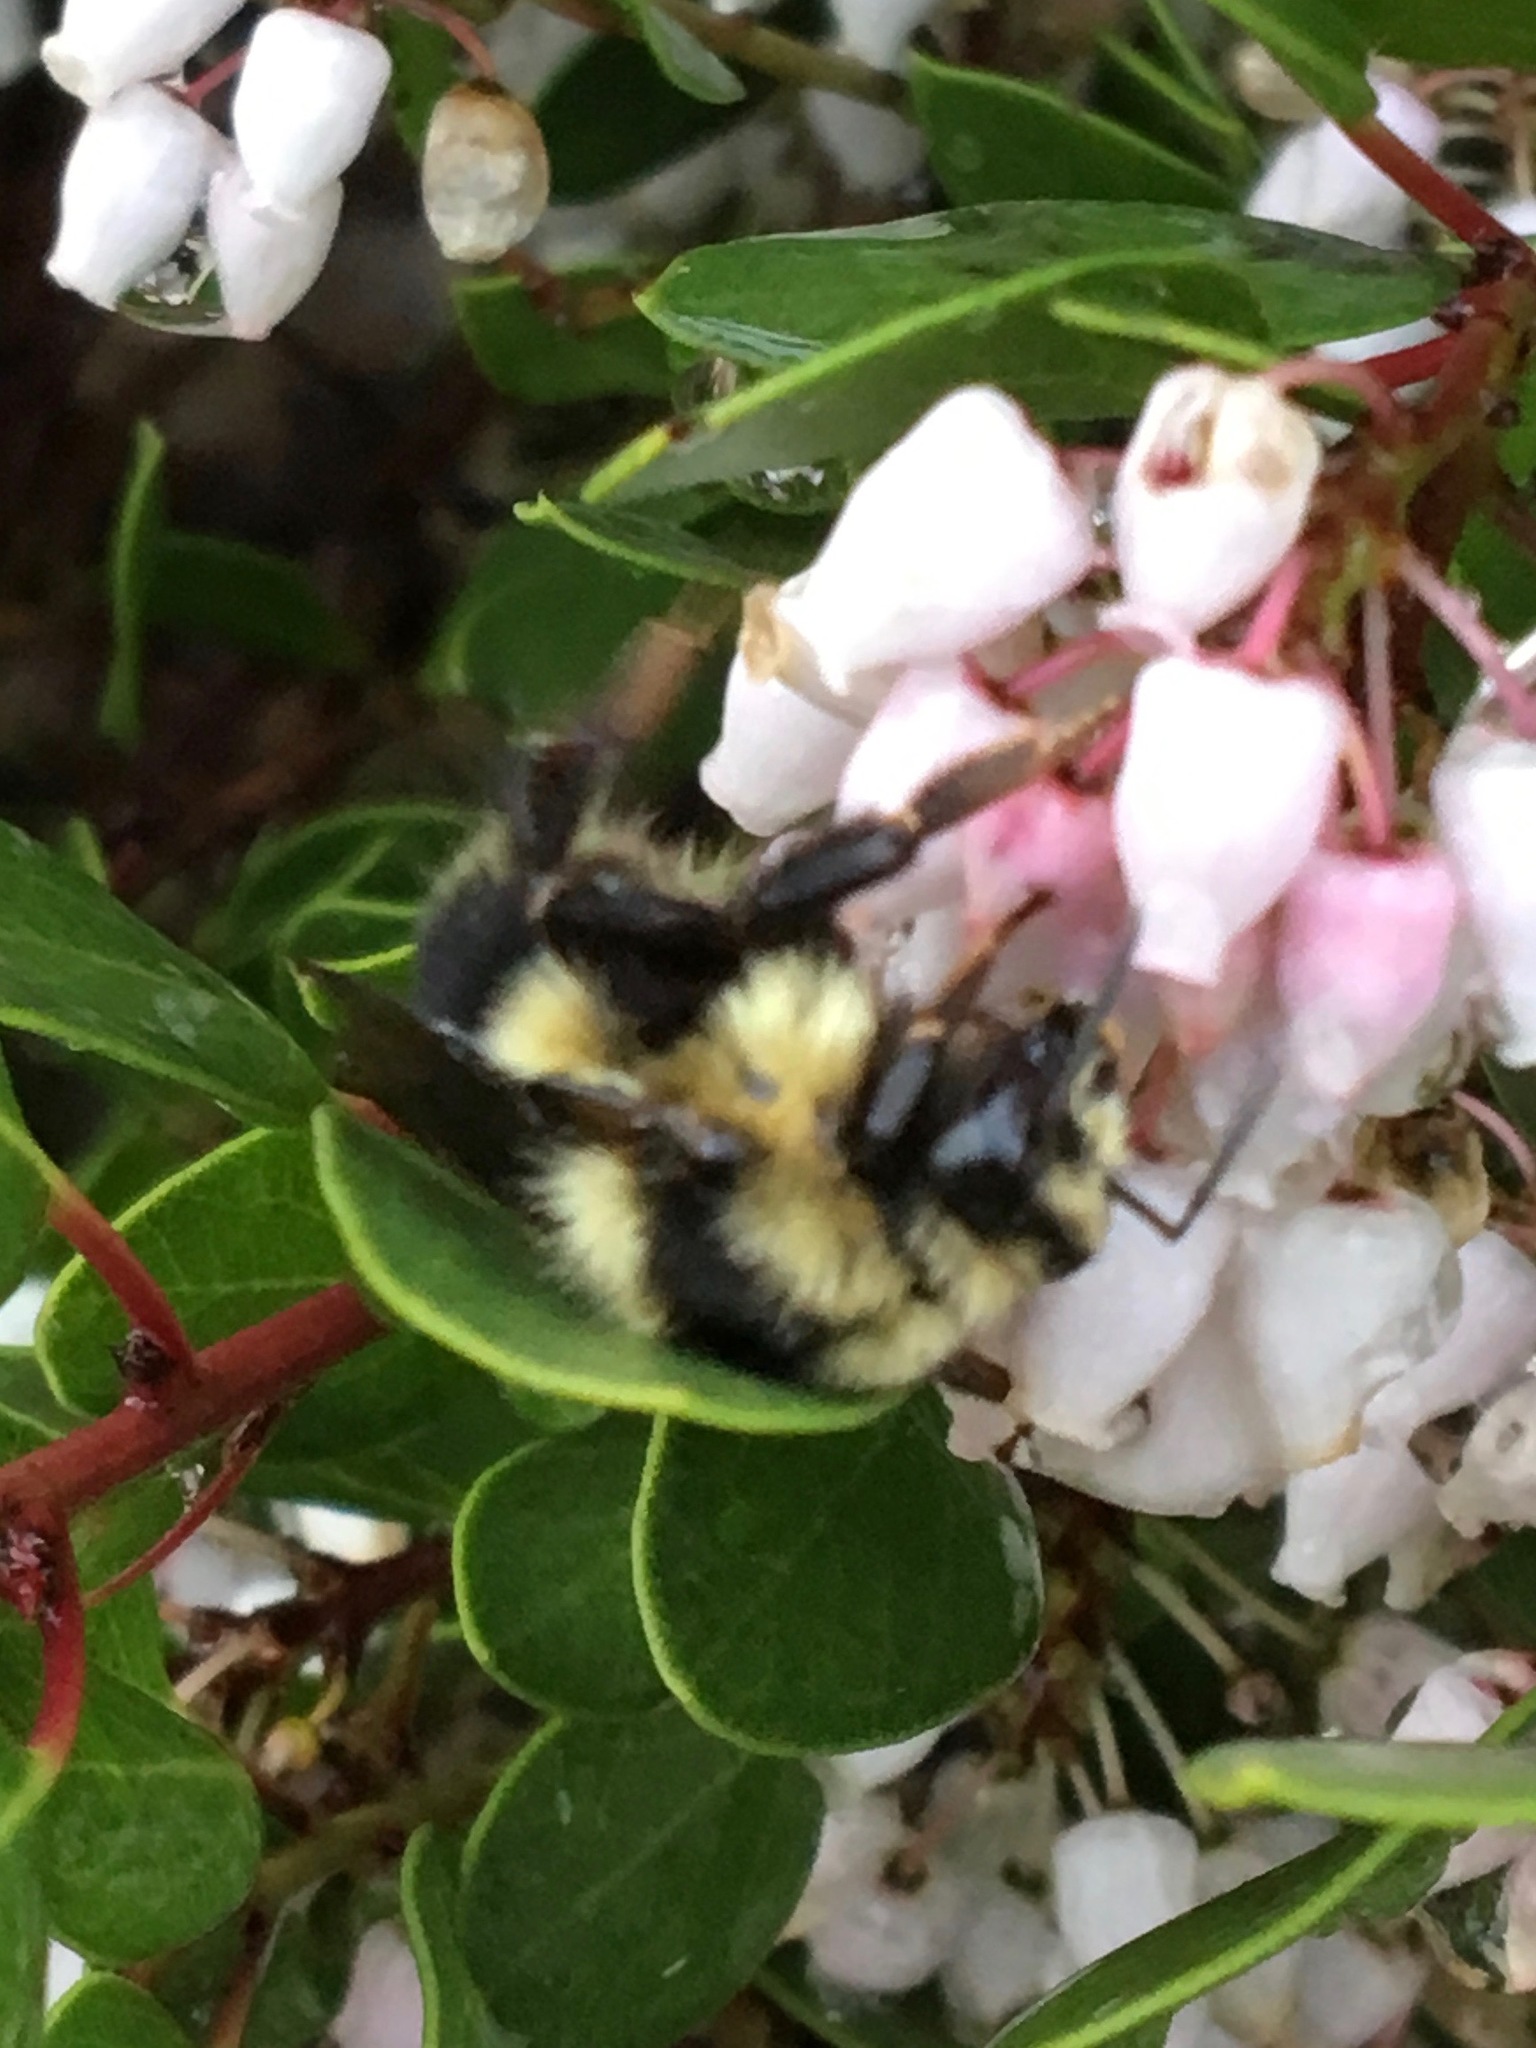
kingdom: Animalia
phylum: Arthropoda
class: Insecta
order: Hymenoptera
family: Apidae
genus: Bombus
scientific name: Bombus melanopygus
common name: Black tail bumble bee
